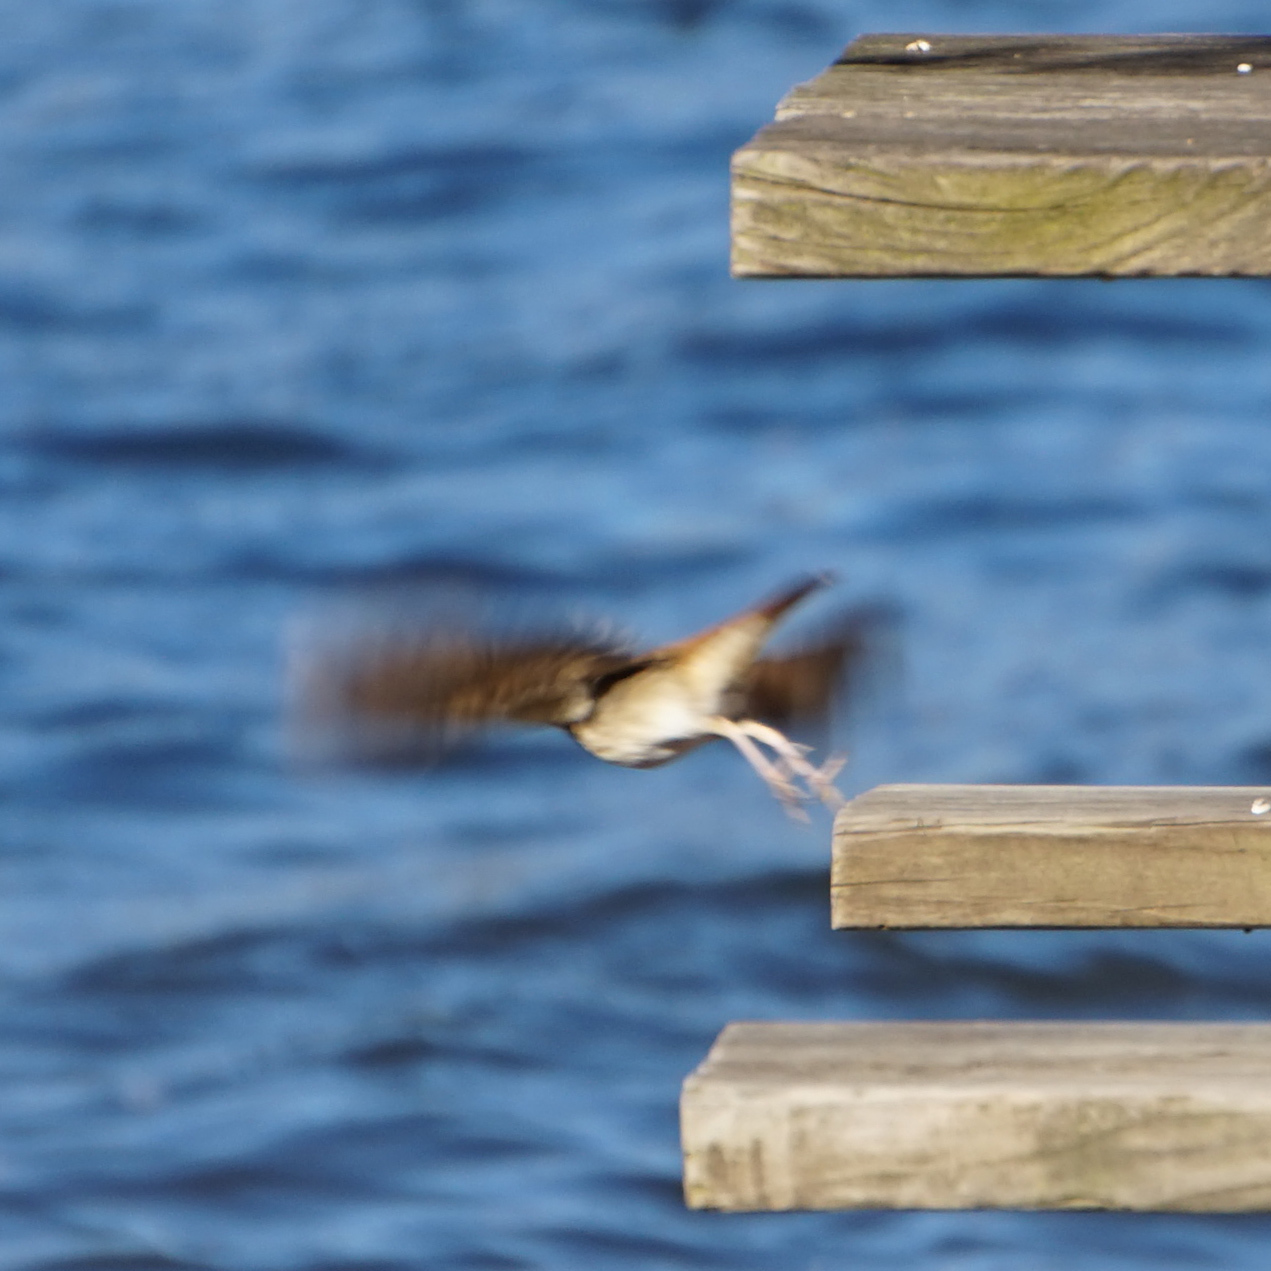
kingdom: Animalia
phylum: Chordata
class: Aves
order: Passeriformes
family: Turdidae
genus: Catharus
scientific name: Catharus guttatus
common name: Hermit thrush
